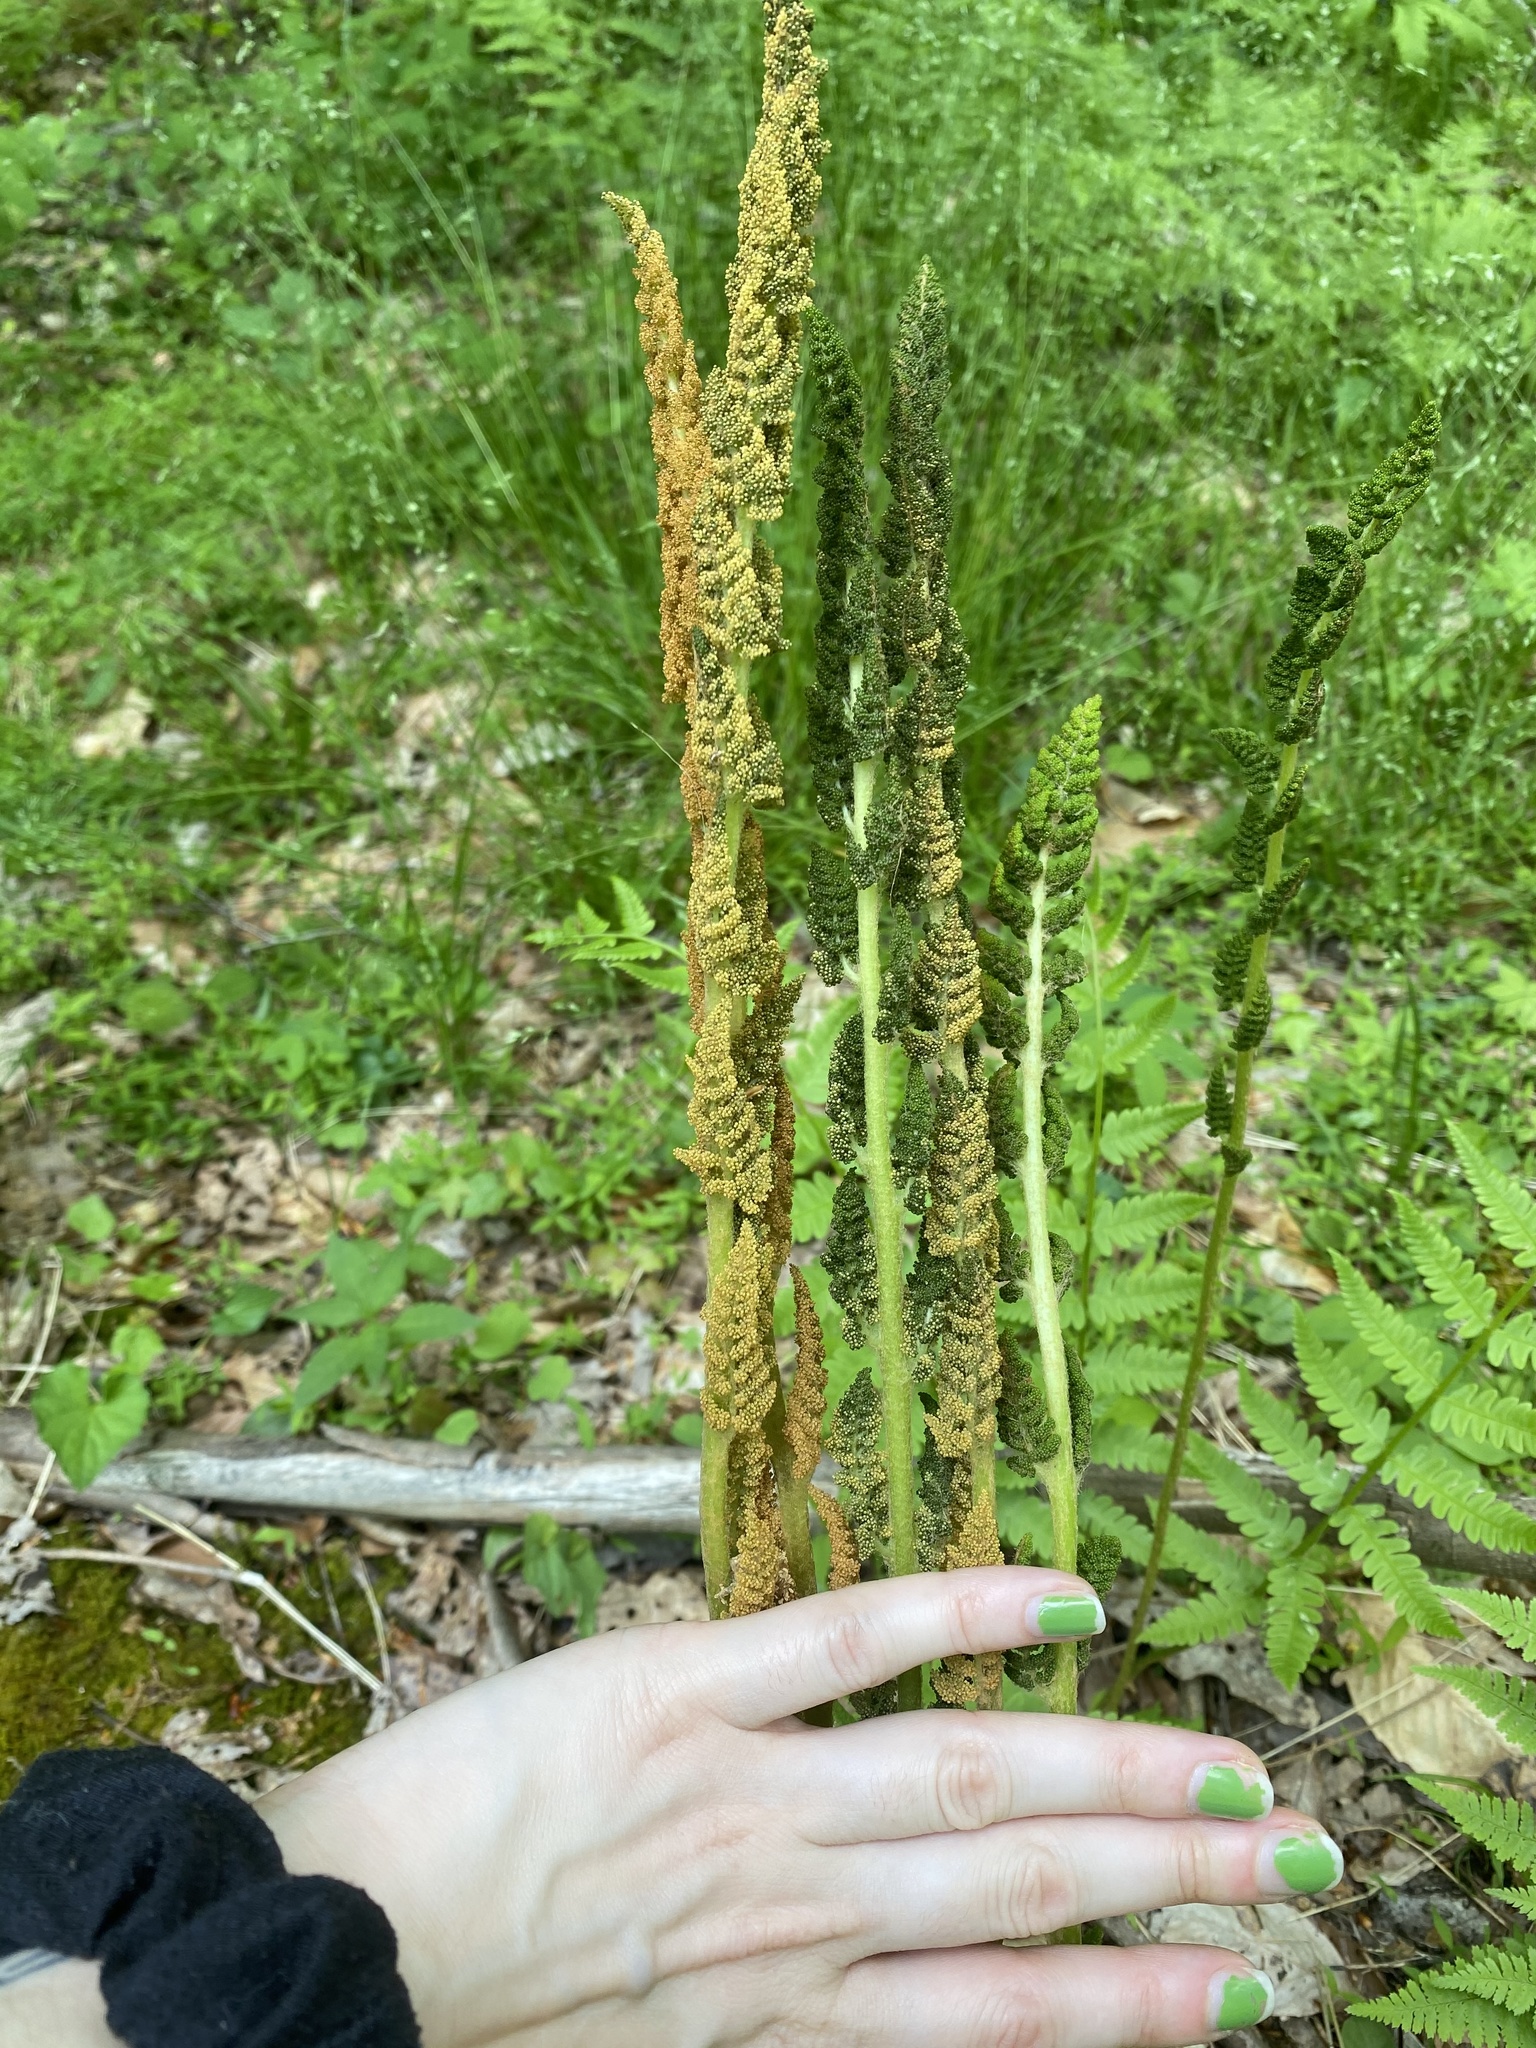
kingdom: Plantae
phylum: Tracheophyta
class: Polypodiopsida
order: Osmundales
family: Osmundaceae
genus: Osmundastrum
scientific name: Osmundastrum cinnamomeum
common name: Cinnamon fern
